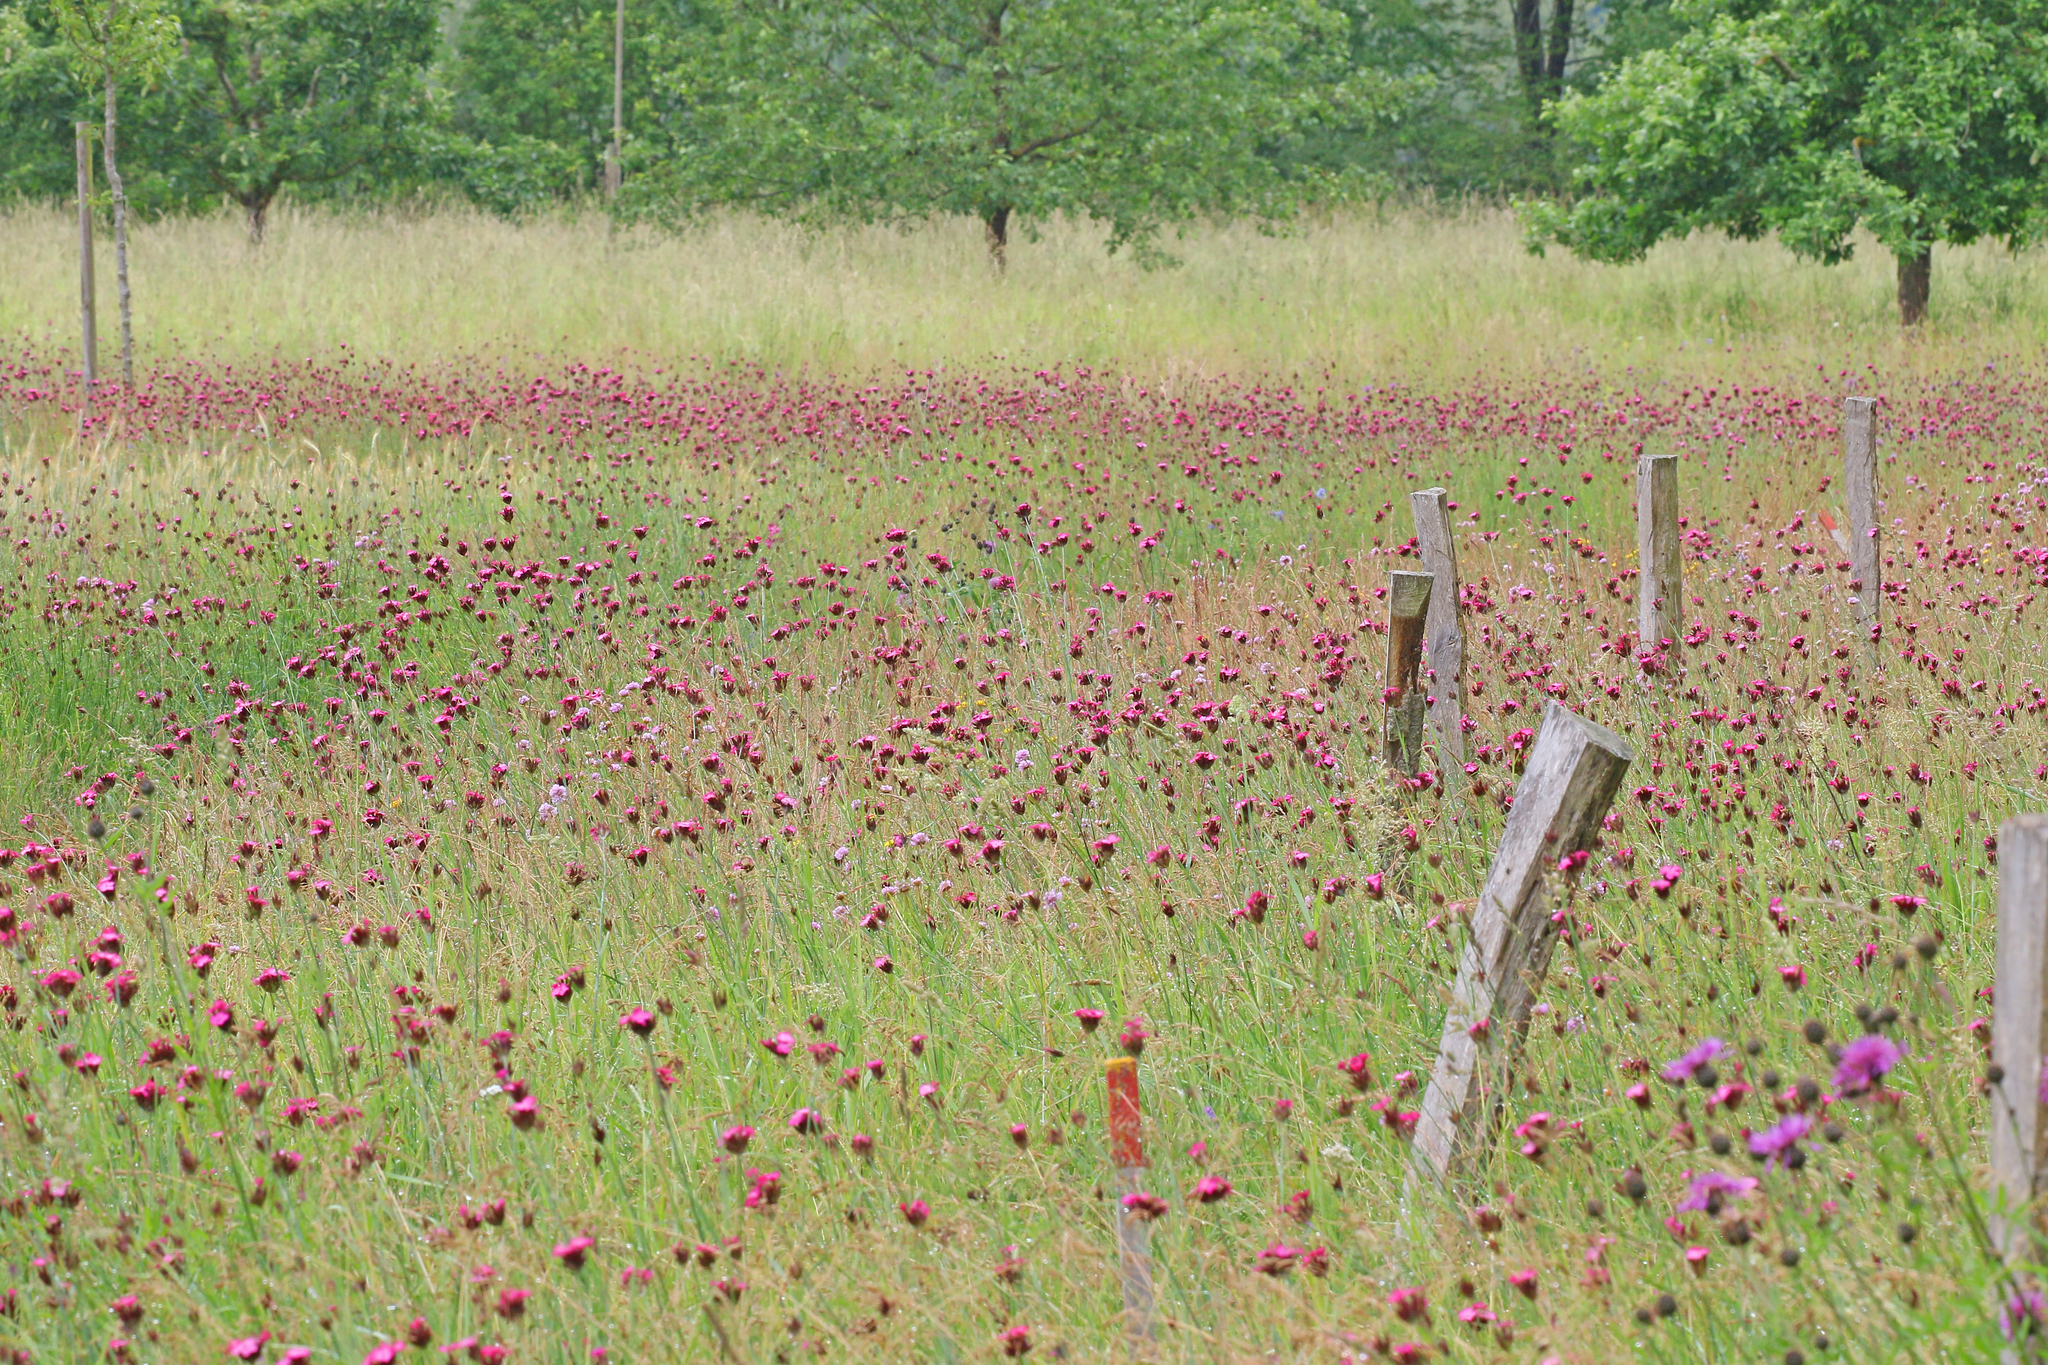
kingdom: Plantae
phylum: Tracheophyta
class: Magnoliopsida
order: Caryophyllales
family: Caryophyllaceae
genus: Dianthus
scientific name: Dianthus carthusianorum
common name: Carthusian pink
